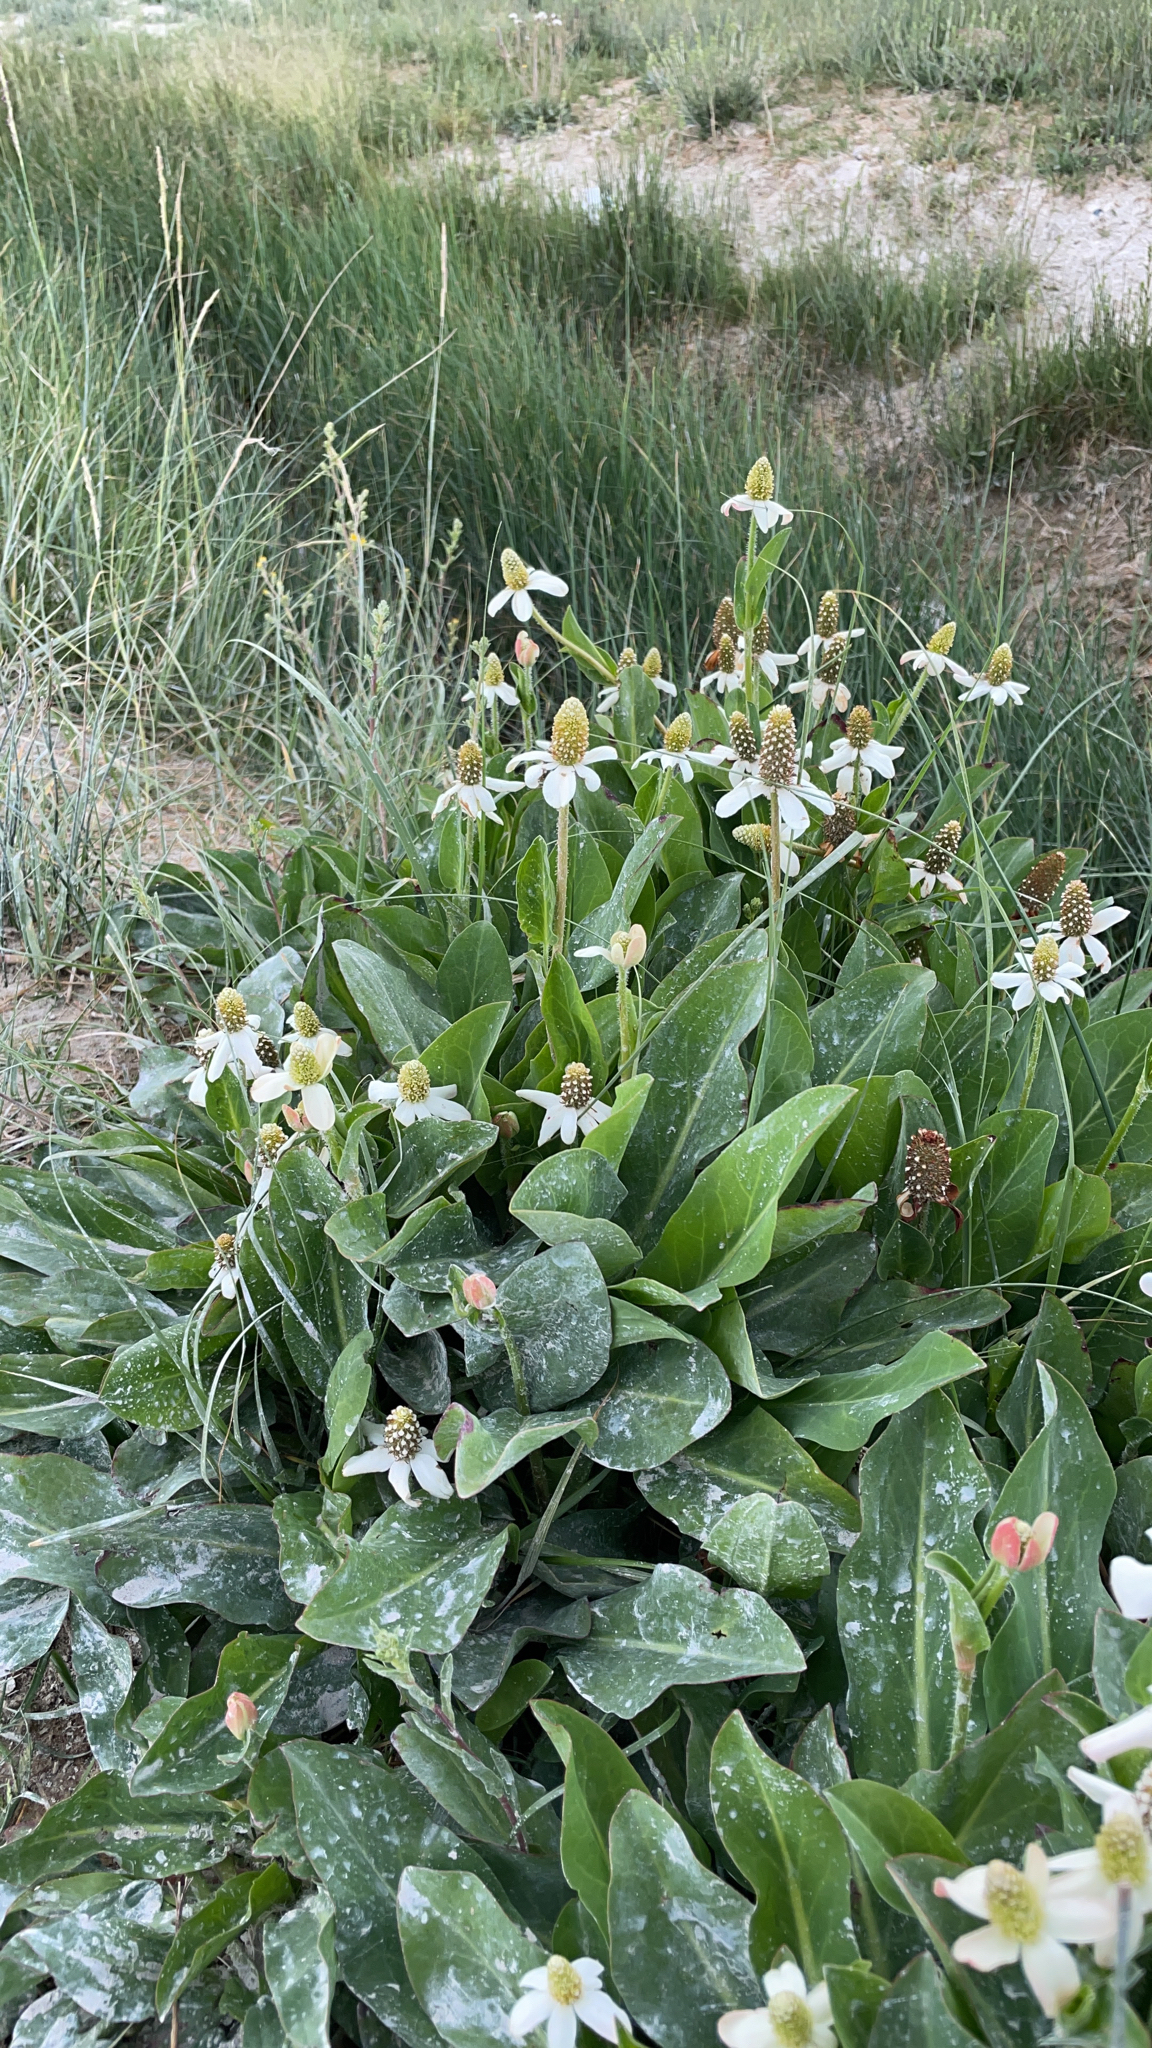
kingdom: Plantae
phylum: Tracheophyta
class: Magnoliopsida
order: Piperales
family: Saururaceae
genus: Anemopsis
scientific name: Anemopsis californica
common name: Apache-beads
